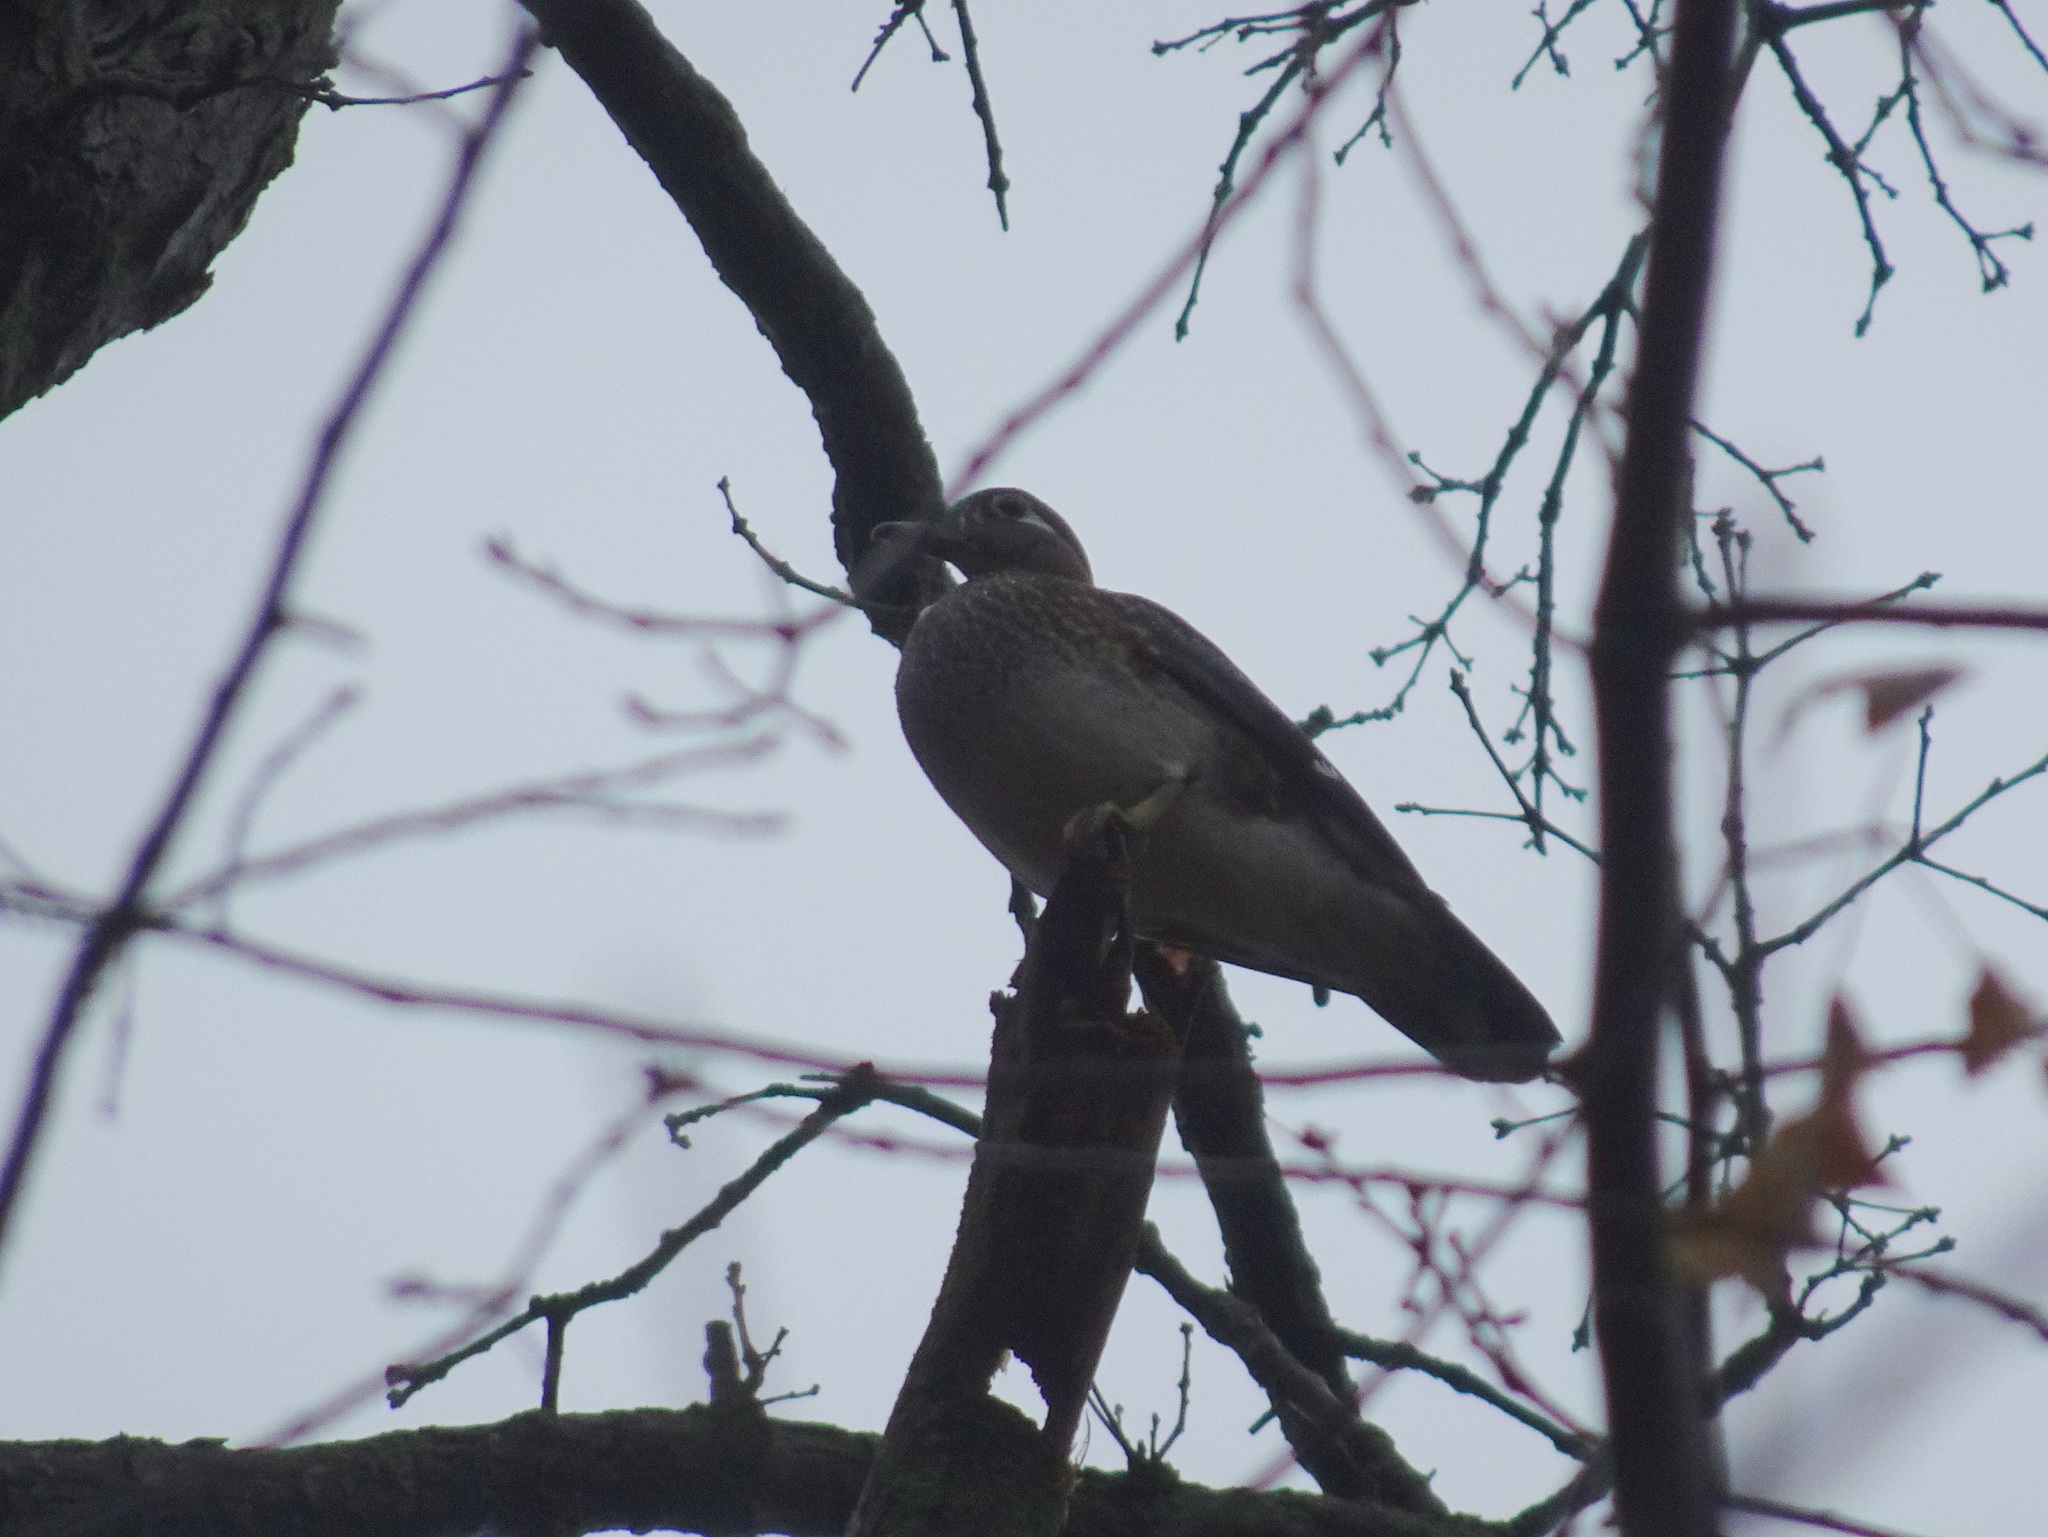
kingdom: Animalia
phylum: Chordata
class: Aves
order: Anseriformes
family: Anatidae
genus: Aix
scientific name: Aix sponsa
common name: Wood duck
